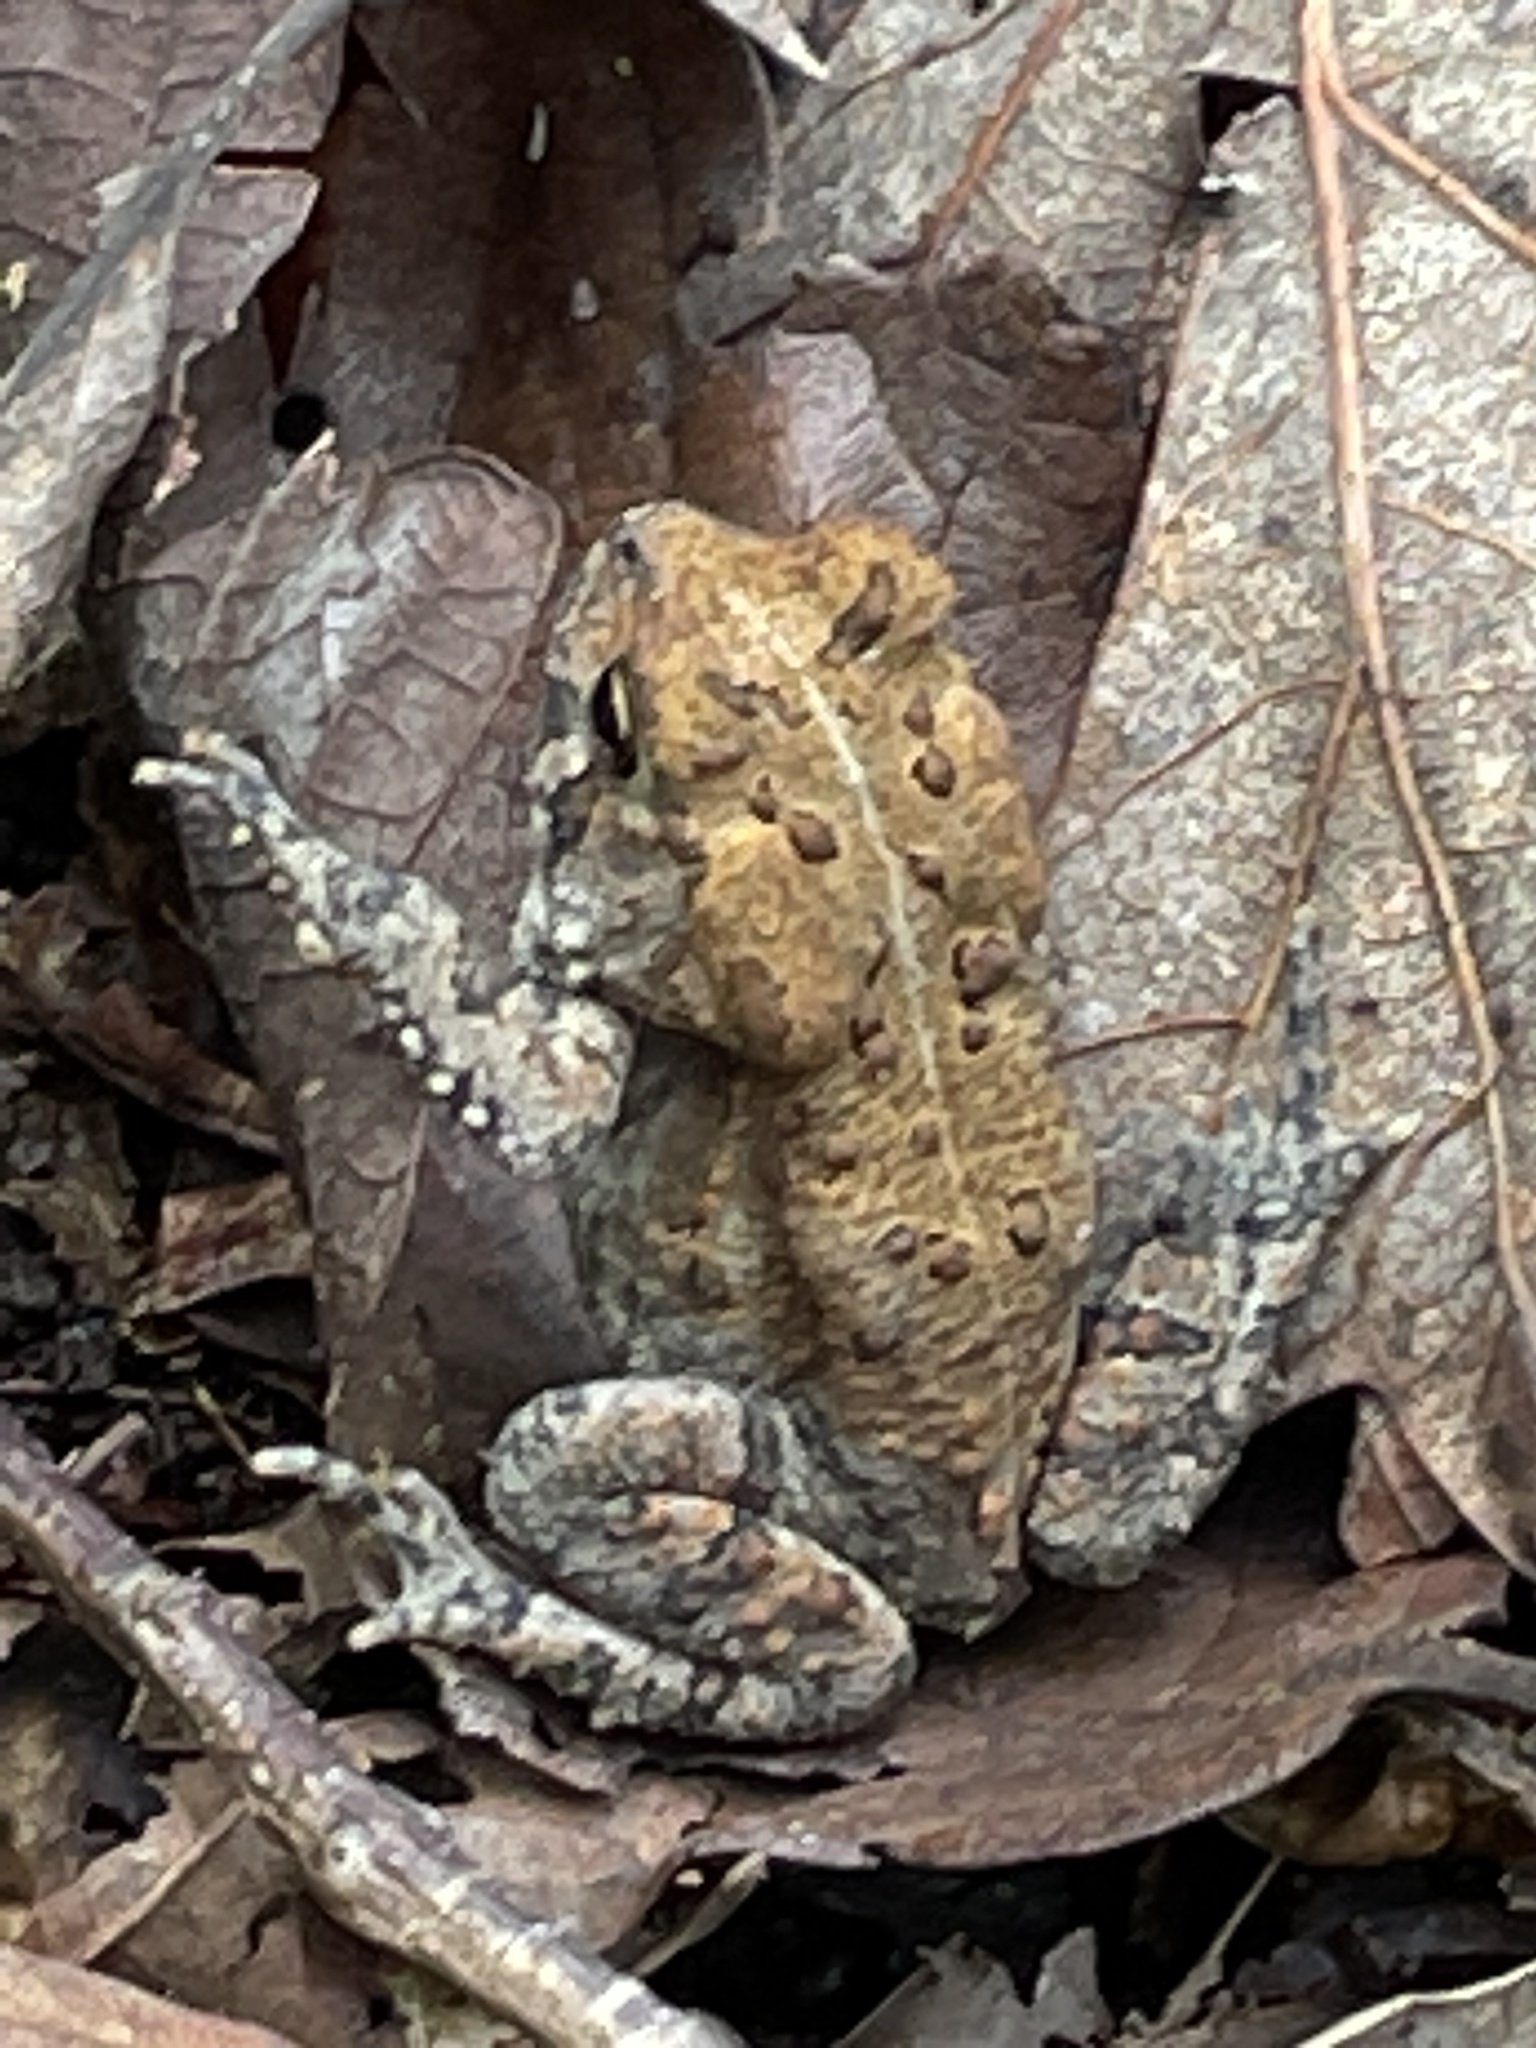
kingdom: Animalia
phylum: Chordata
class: Amphibia
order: Anura
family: Bufonidae
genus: Anaxyrus
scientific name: Anaxyrus americanus
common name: American toad
